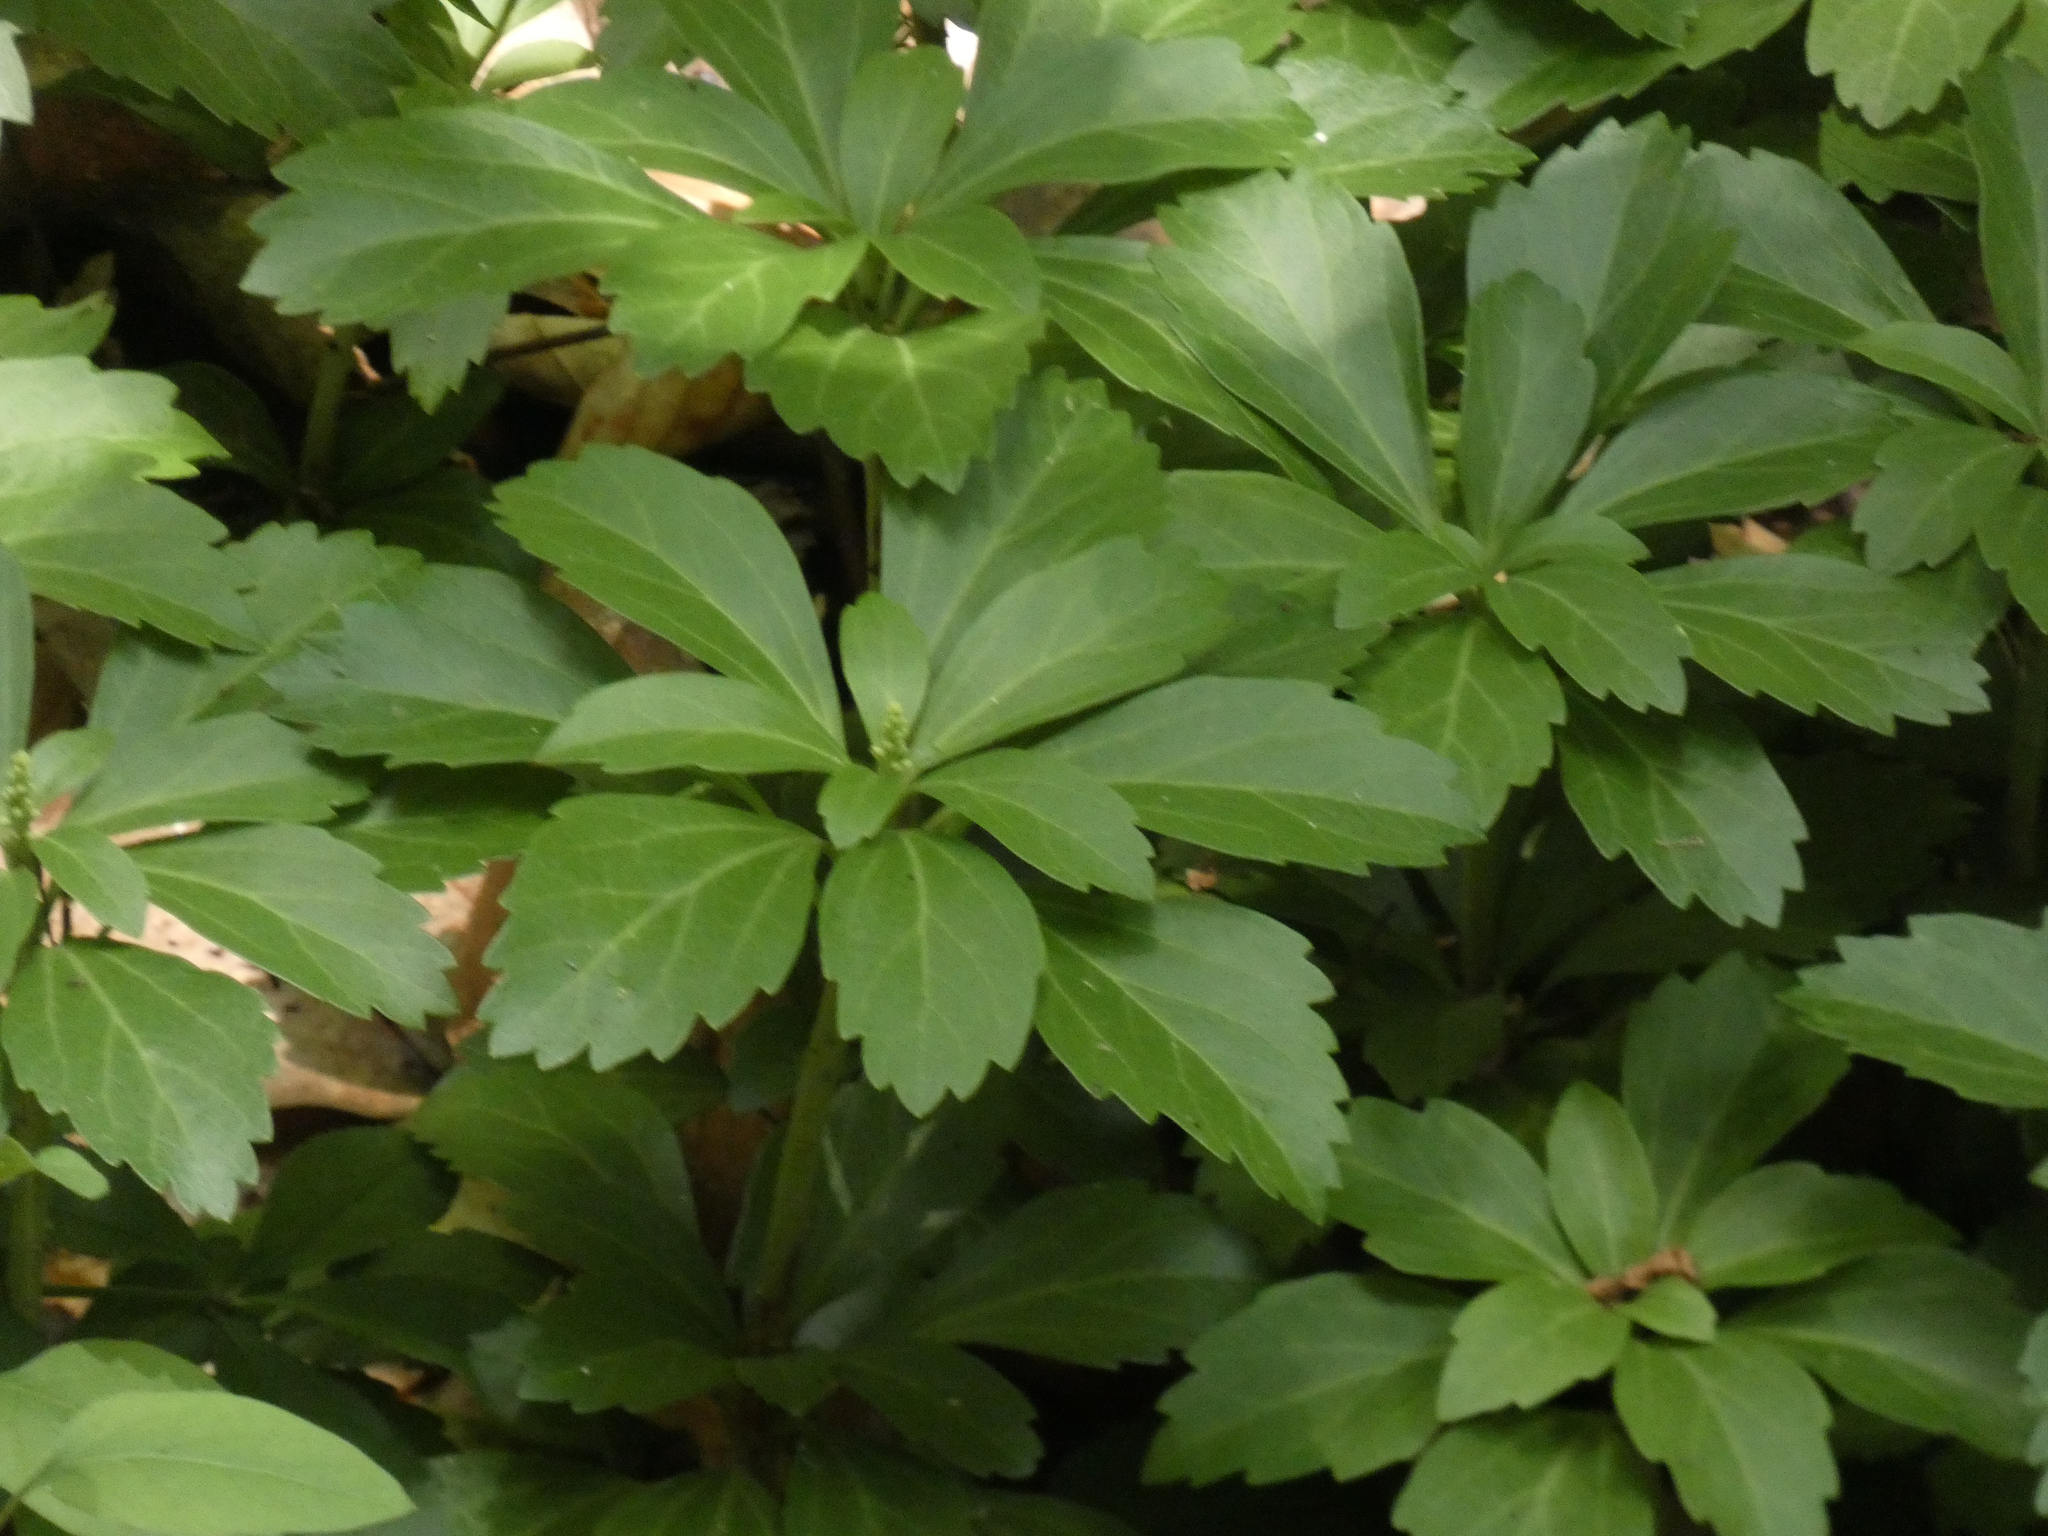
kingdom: Plantae
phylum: Tracheophyta
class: Magnoliopsida
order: Buxales
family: Buxaceae
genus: Pachysandra
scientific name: Pachysandra terminalis
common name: Japanese pachysandra
